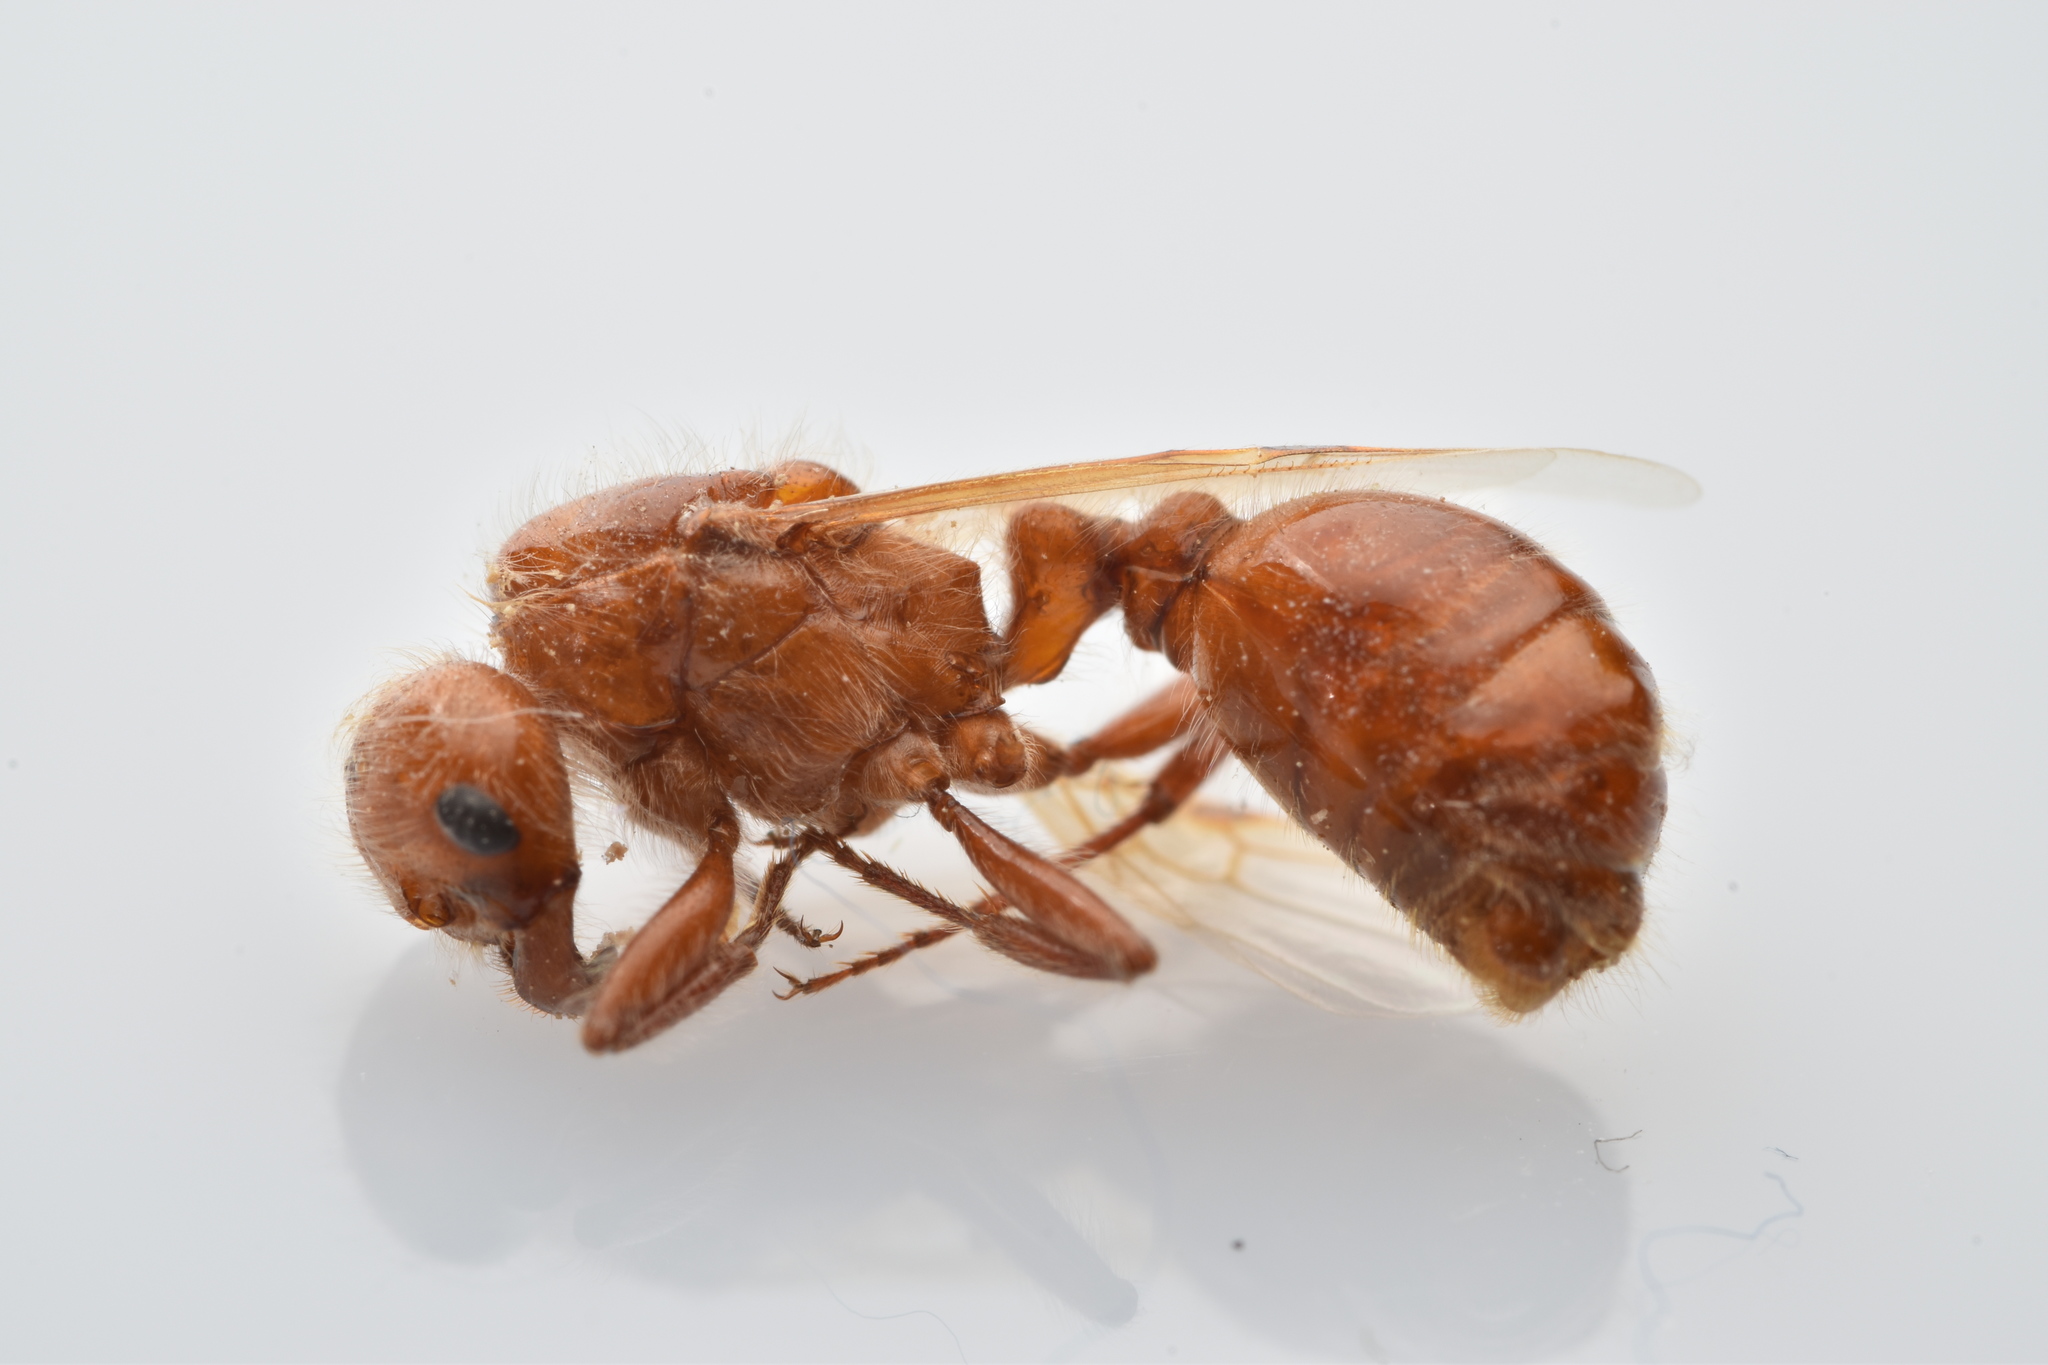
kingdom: Animalia
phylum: Arthropoda
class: Insecta
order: Hymenoptera
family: Formicidae
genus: Pogonomyrmex
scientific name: Pogonomyrmex barbatus
